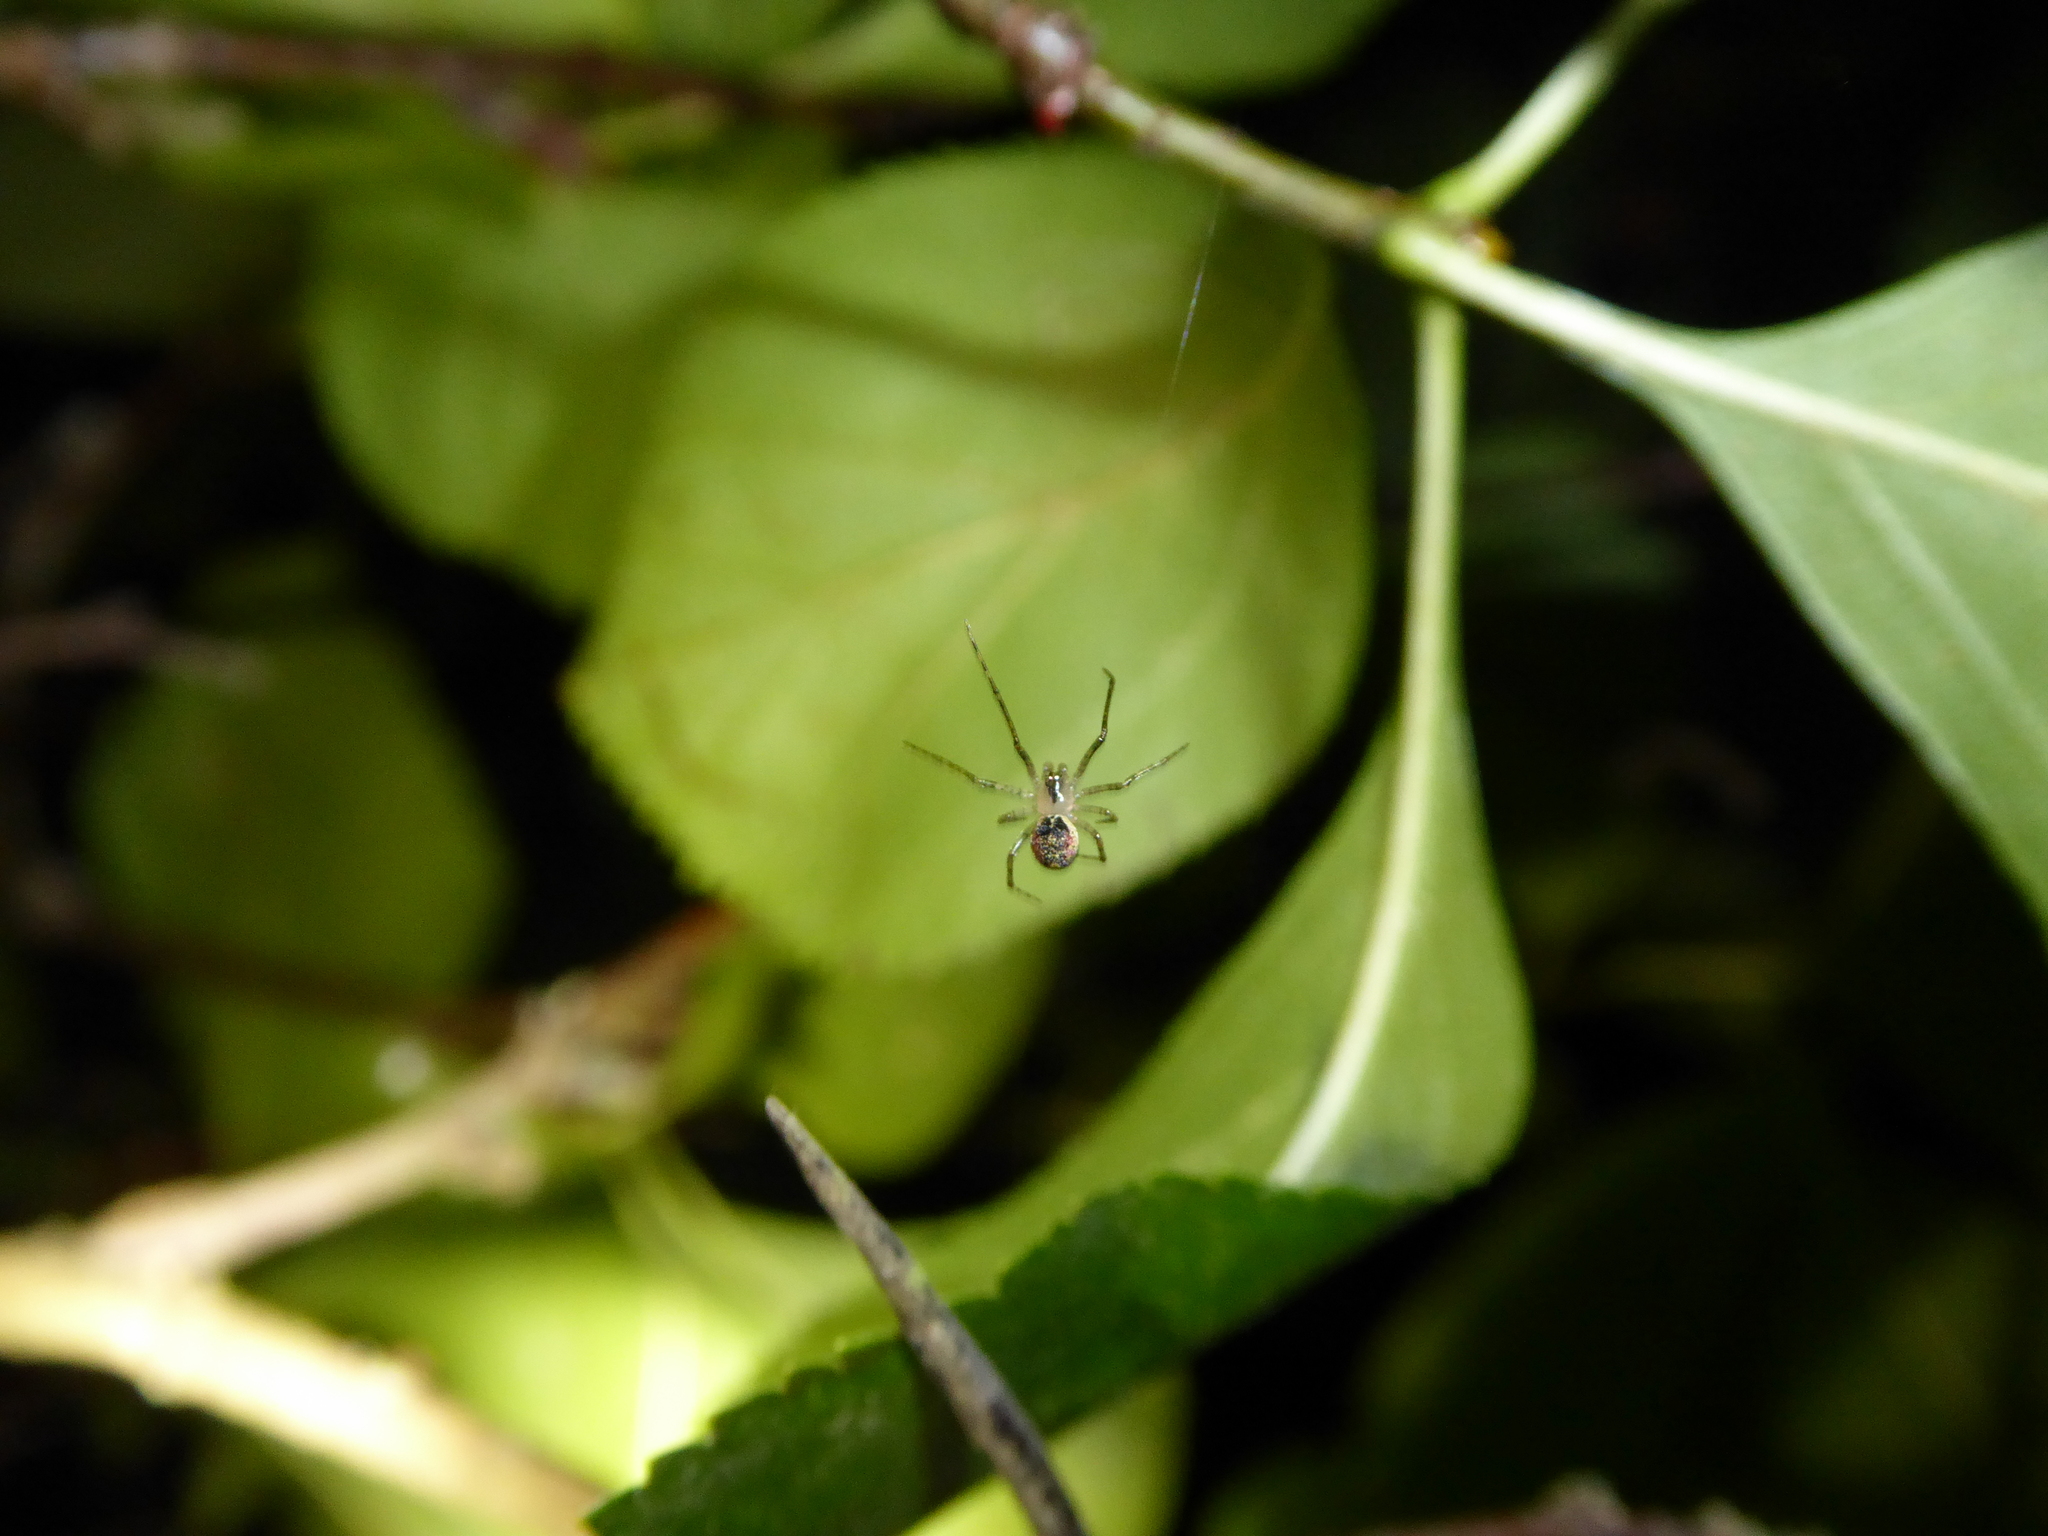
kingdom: Animalia
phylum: Arthropoda
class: Arachnida
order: Araneae
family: Theridiidae
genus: Platnickina
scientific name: Platnickina tincta
